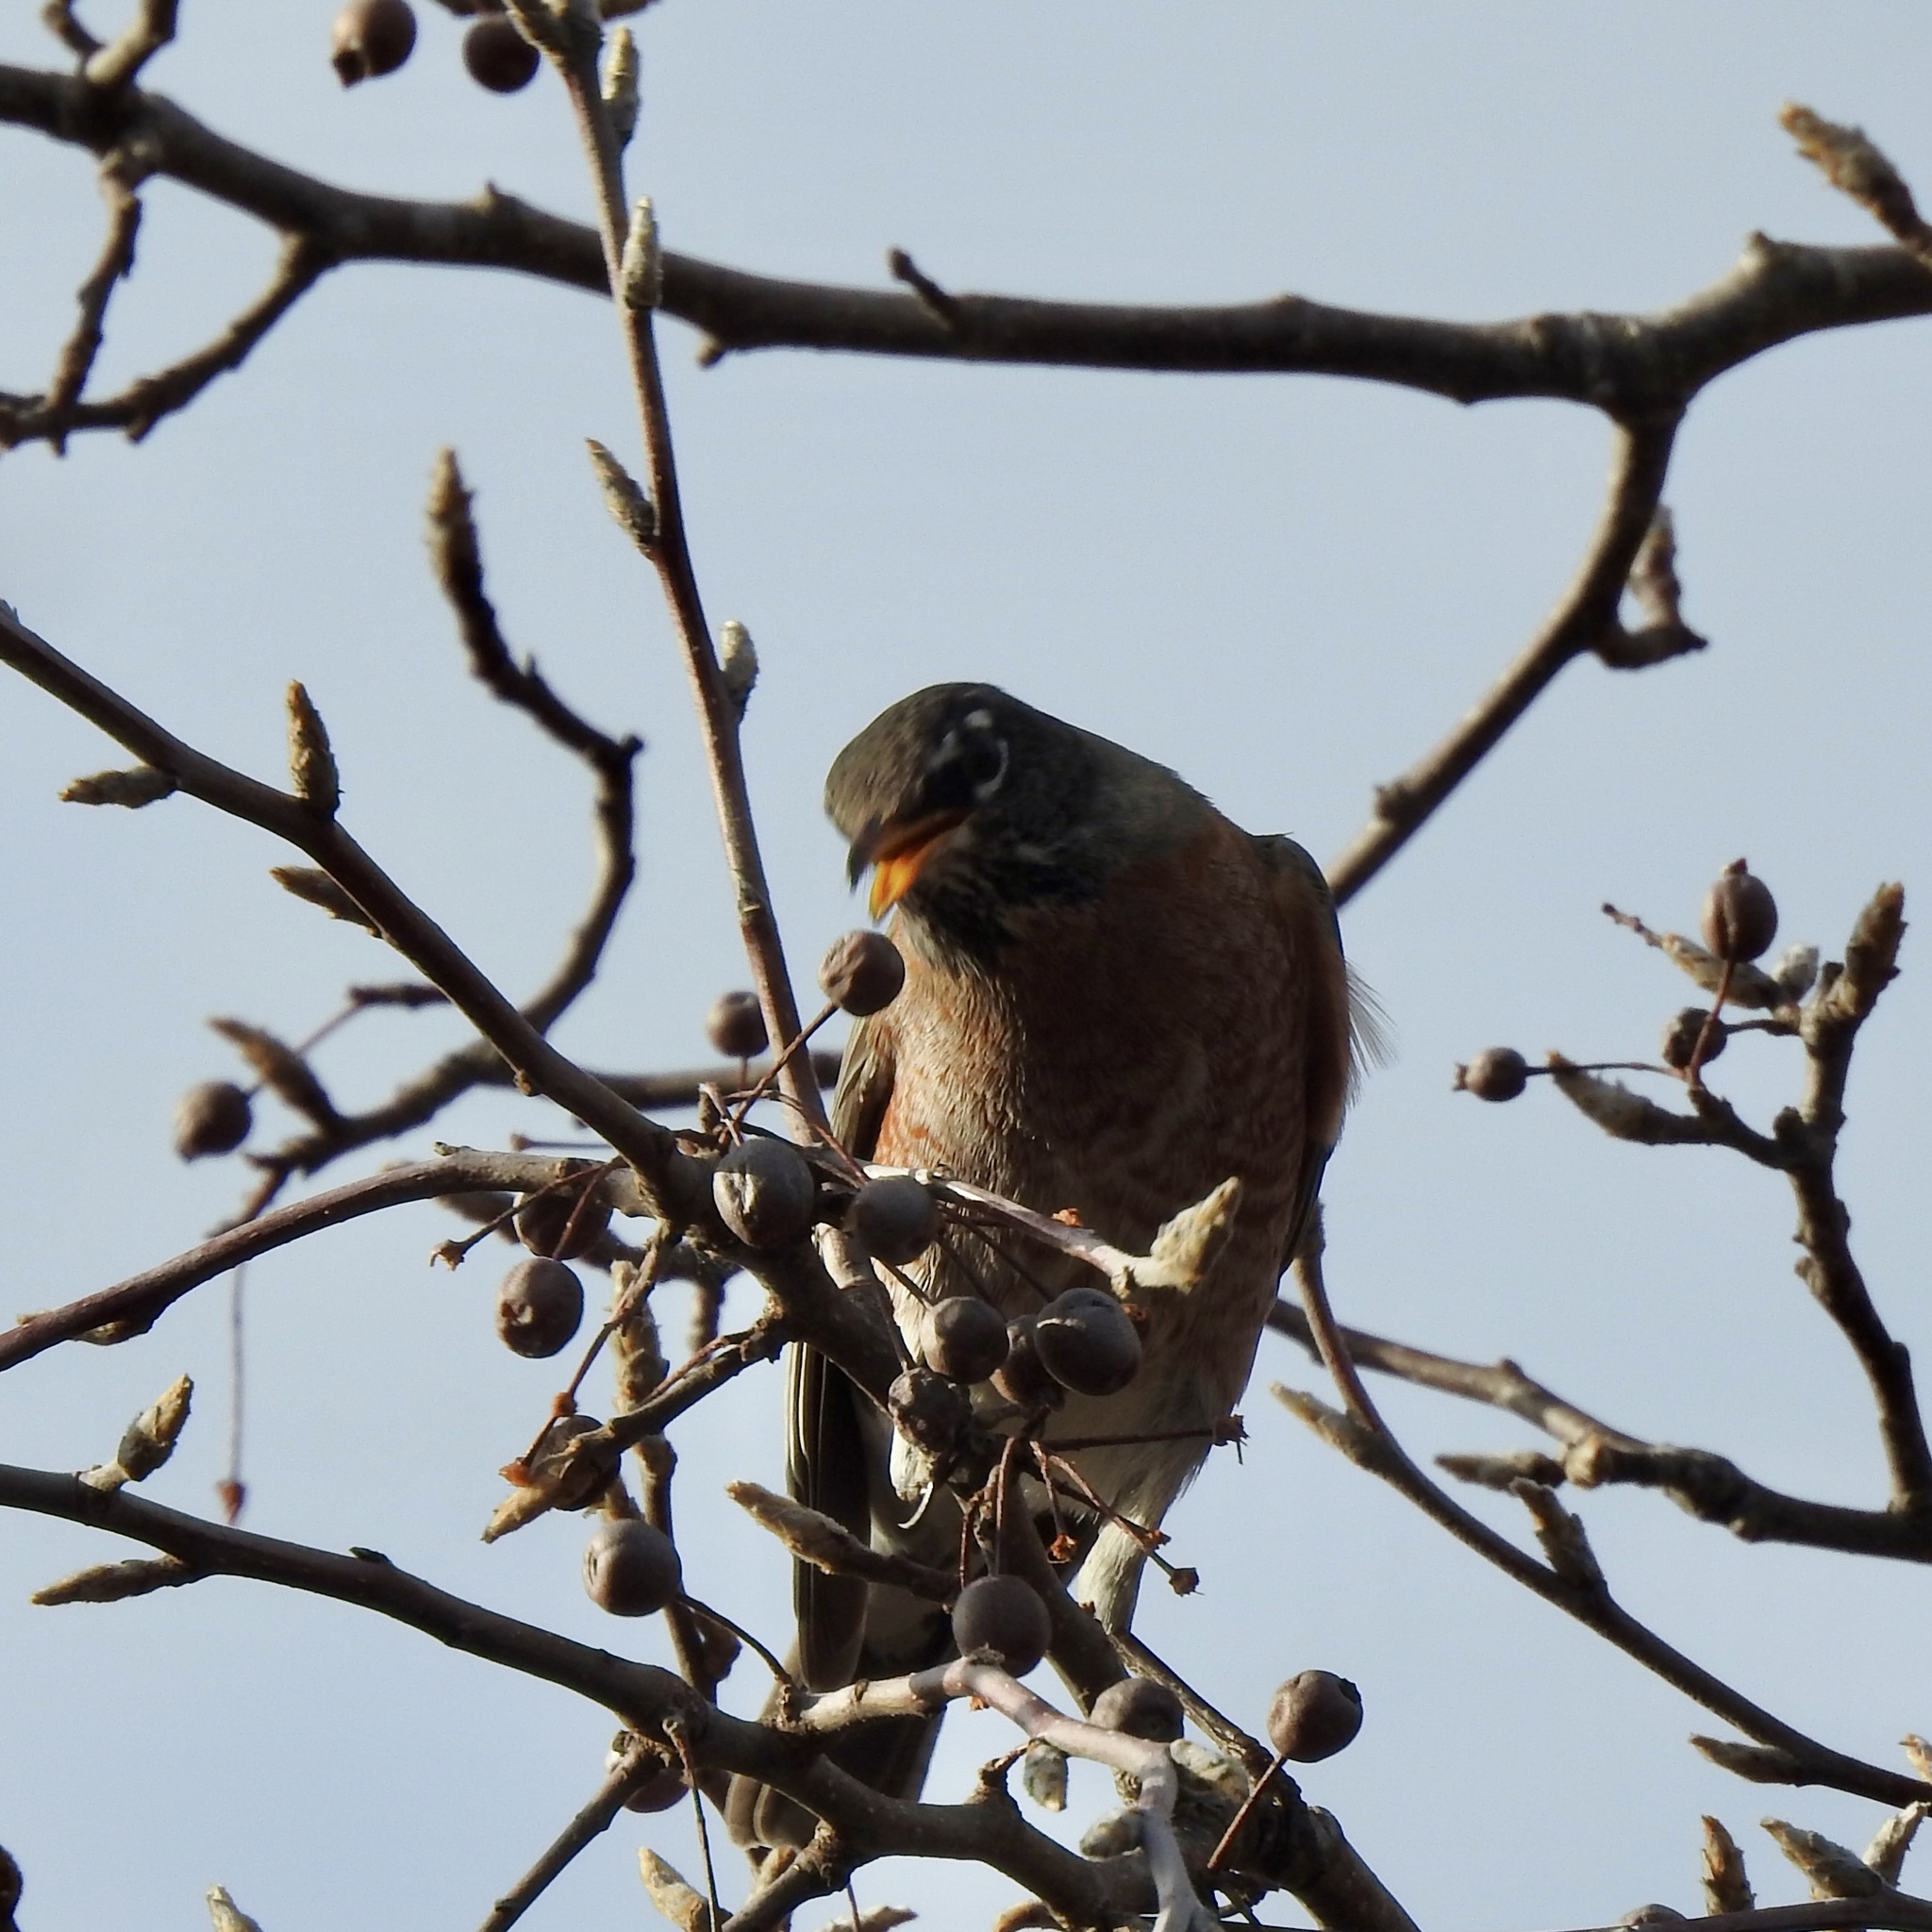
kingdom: Animalia
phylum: Chordata
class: Aves
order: Passeriformes
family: Turdidae
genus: Turdus
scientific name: Turdus migratorius
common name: American robin
